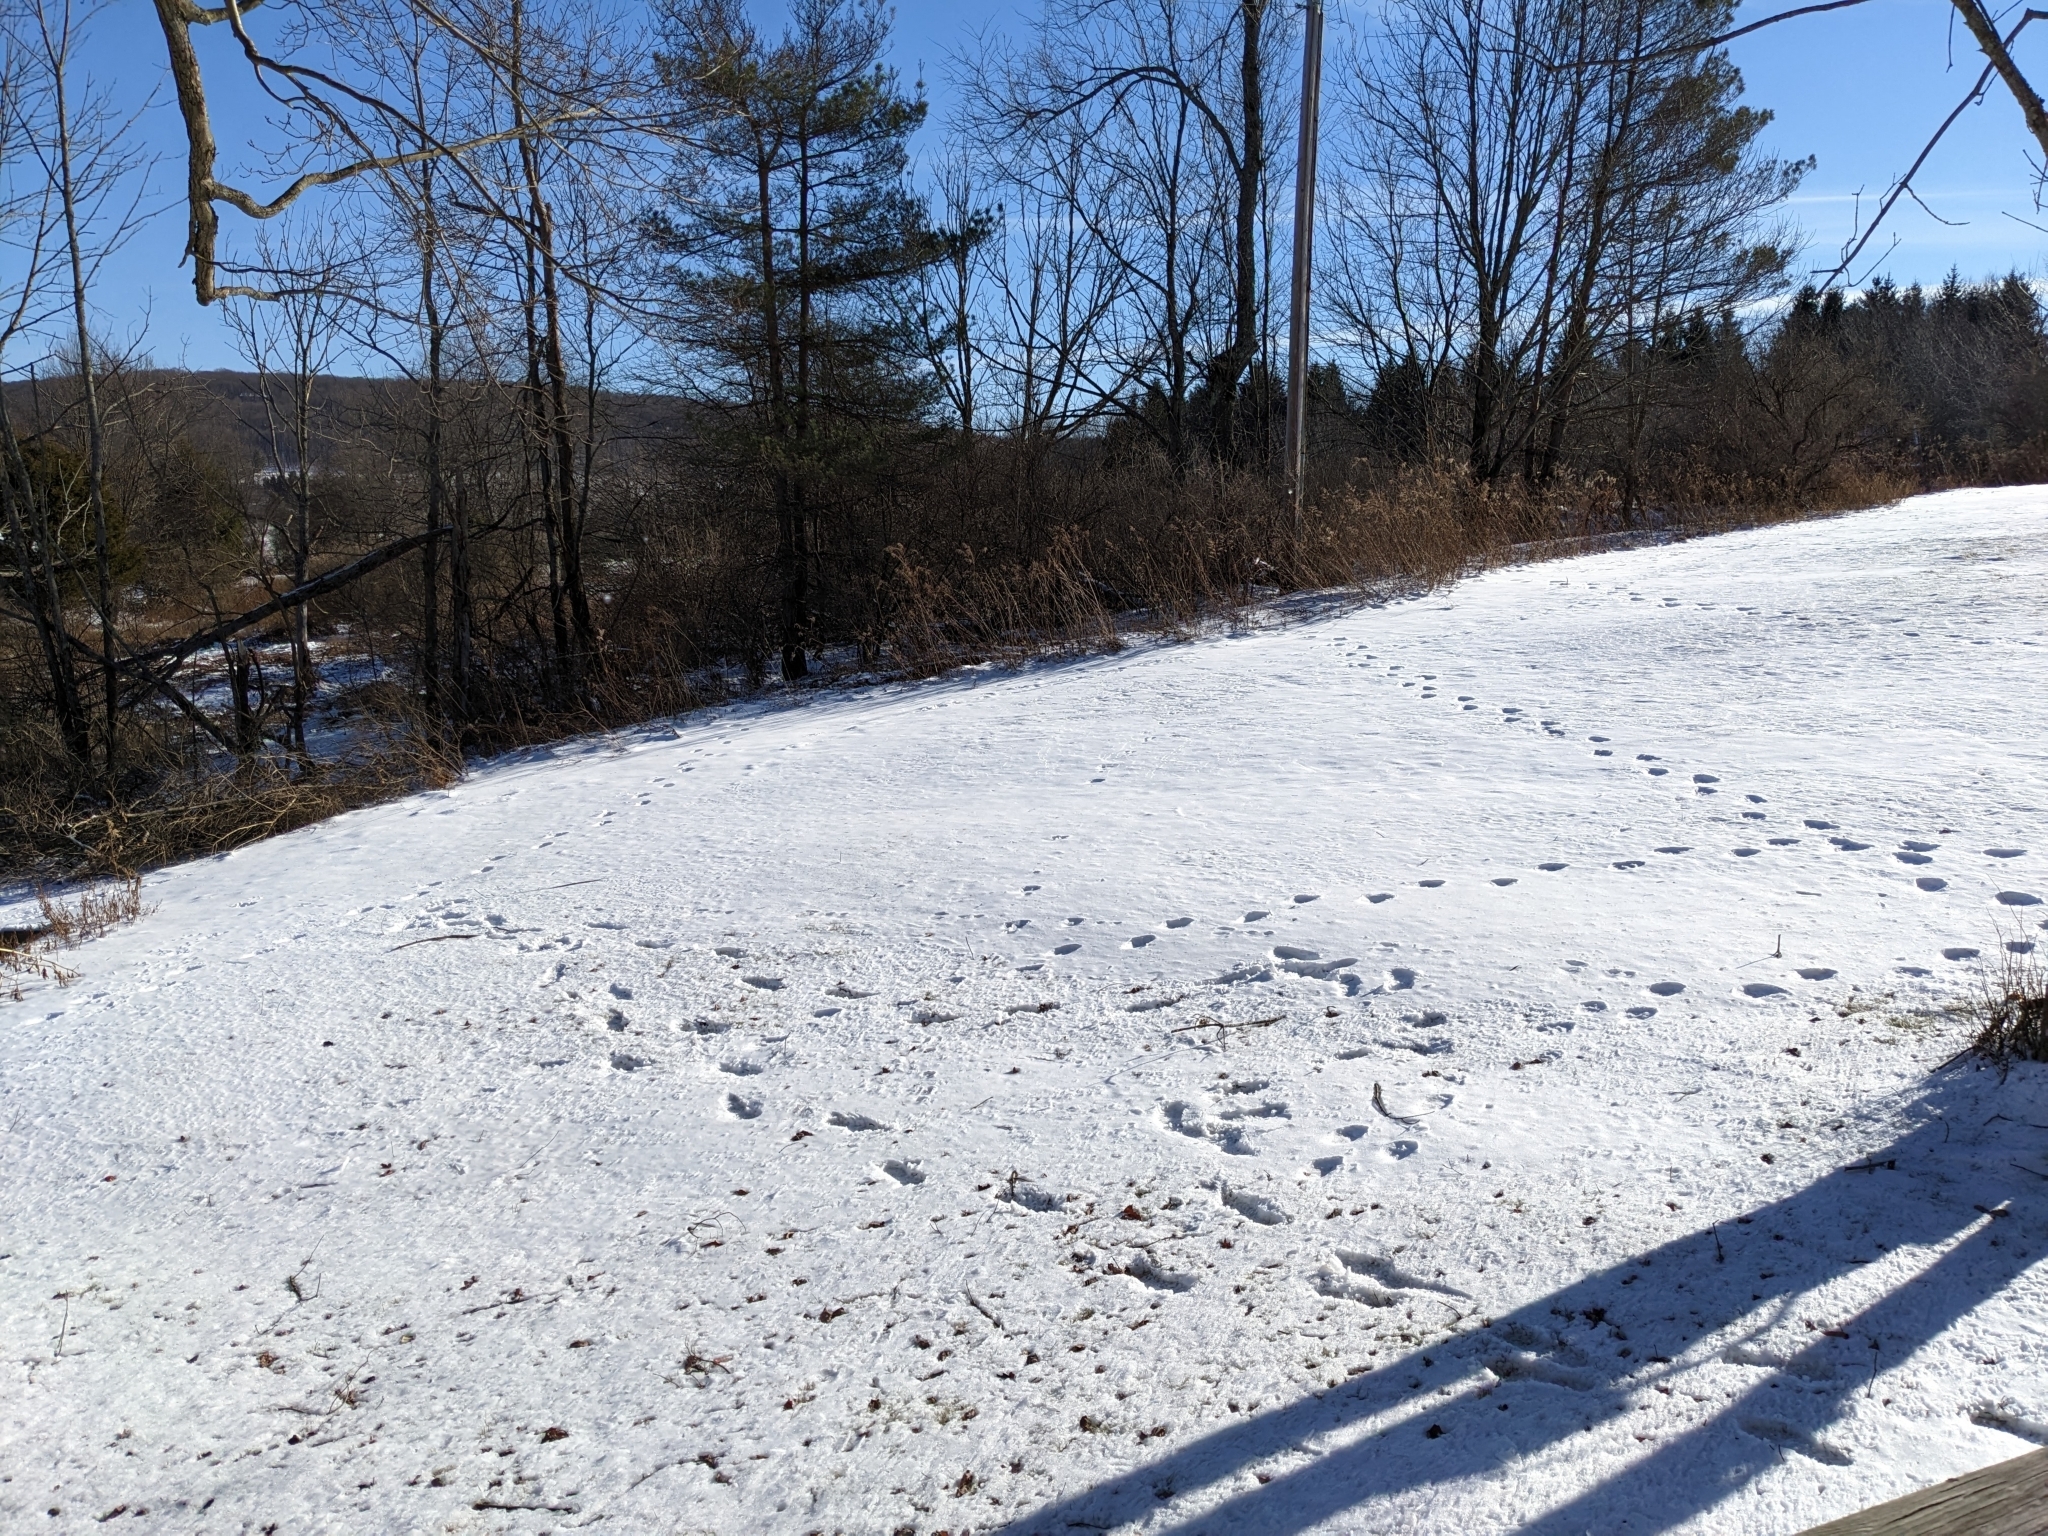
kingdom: Animalia
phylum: Chordata
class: Mammalia
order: Carnivora
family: Ursidae
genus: Ursus
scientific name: Ursus americanus
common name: American black bear
